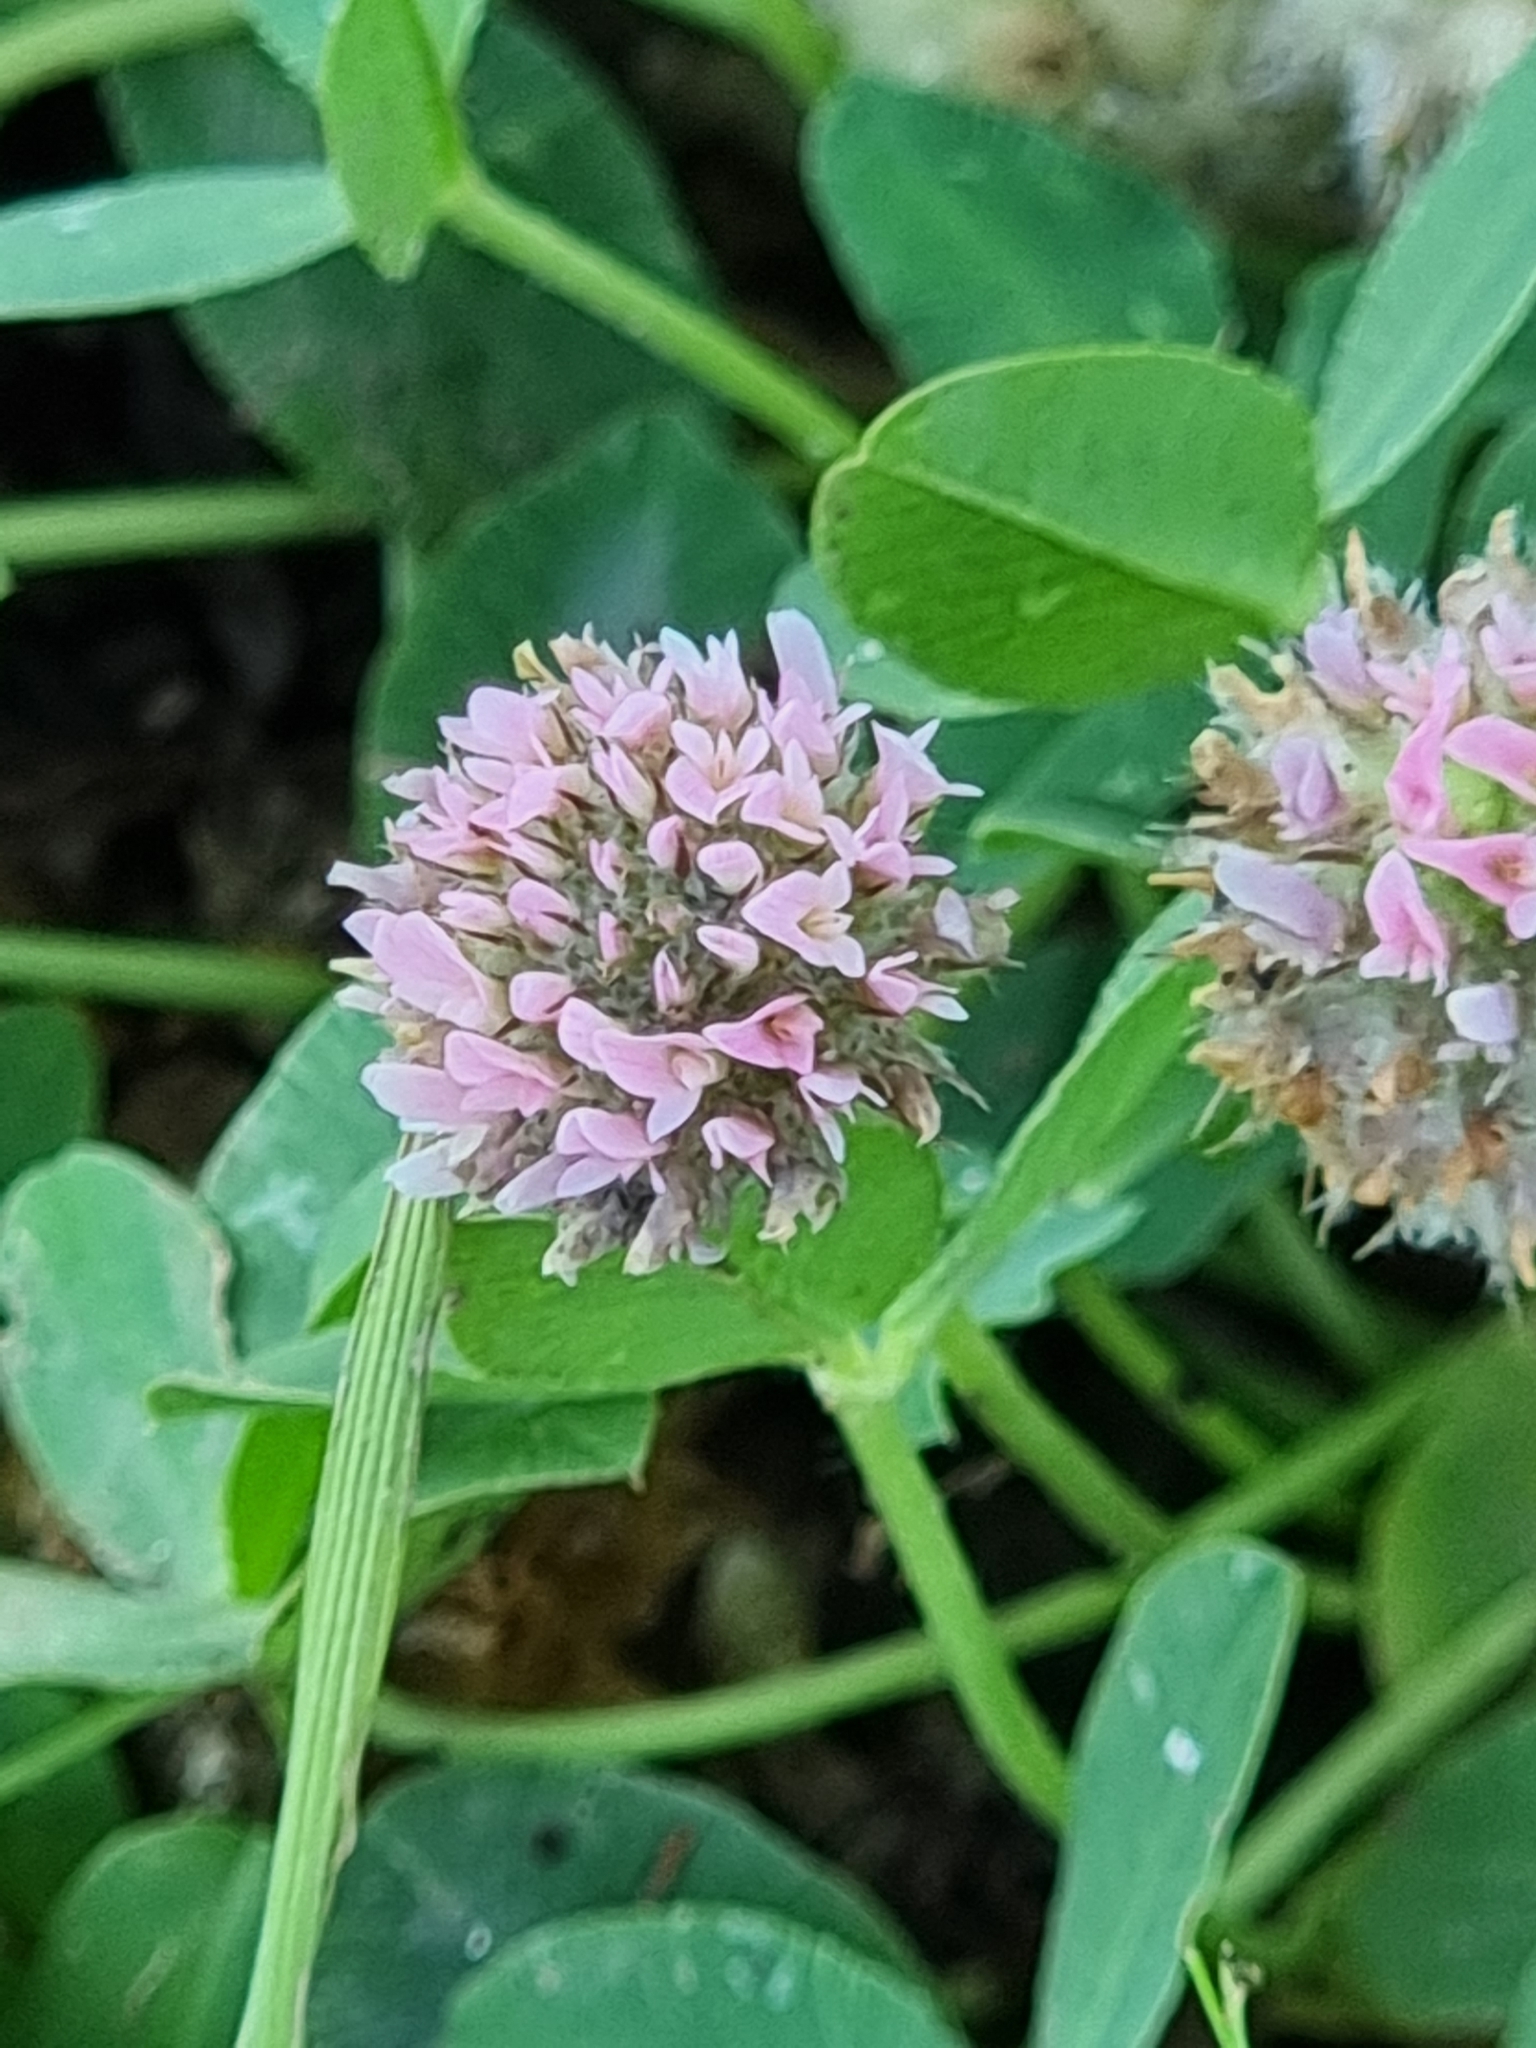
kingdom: Plantae
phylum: Tracheophyta
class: Magnoliopsida
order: Fabales
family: Fabaceae
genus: Trifolium
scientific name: Trifolium fragiferum
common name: Strawberry clover
